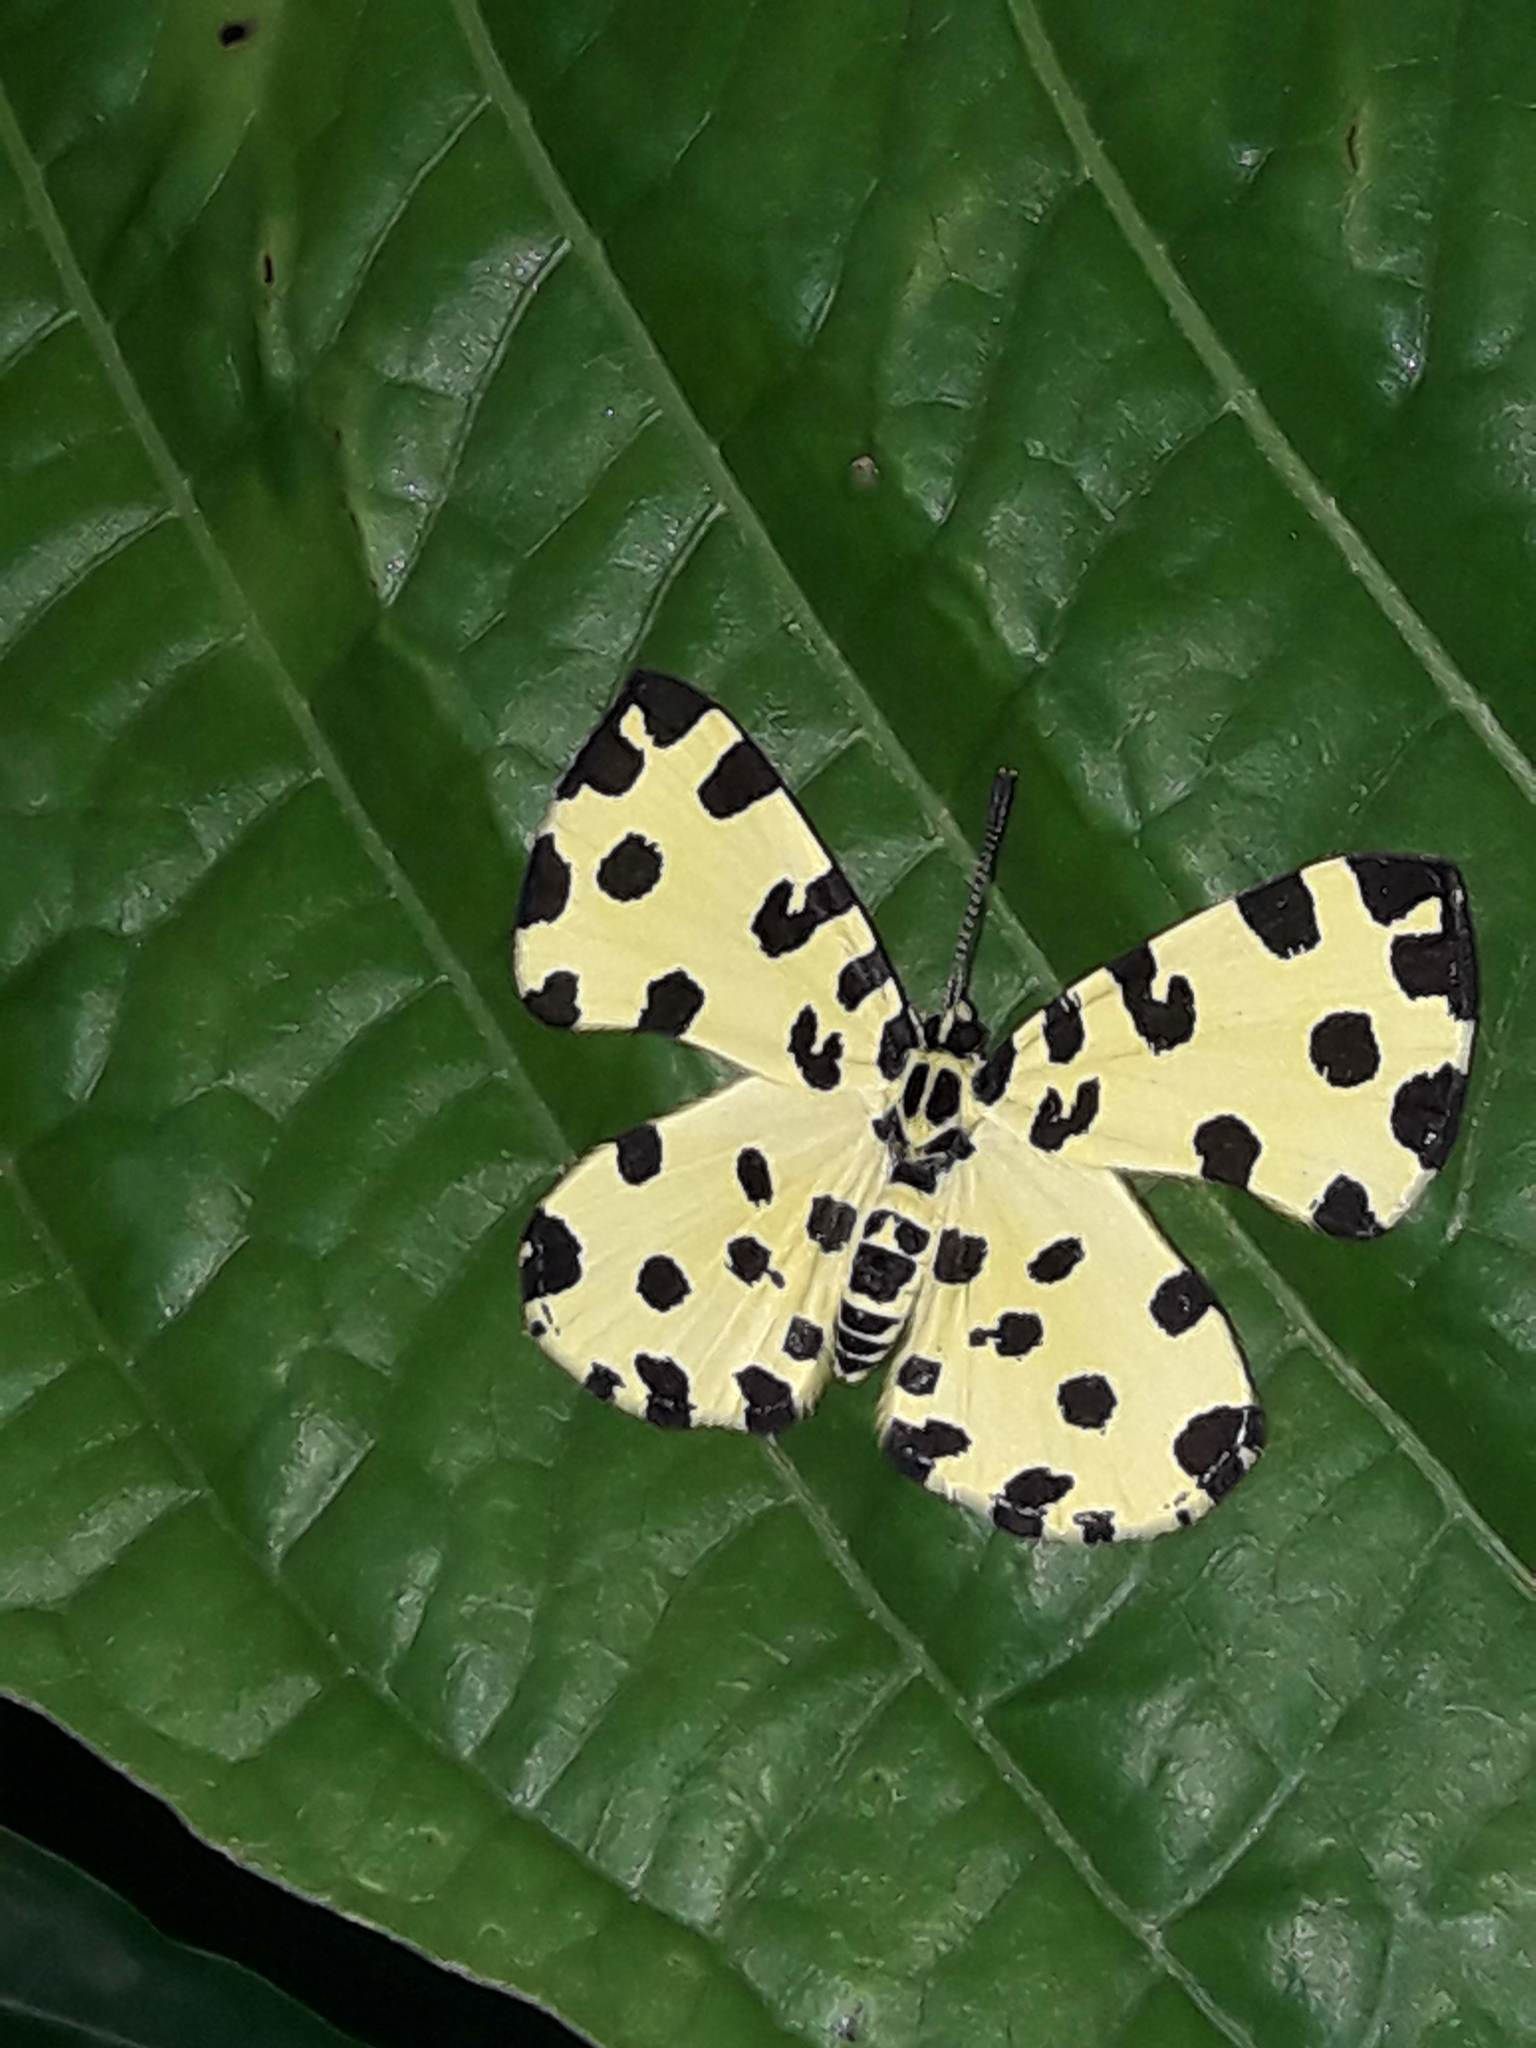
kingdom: Animalia
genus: Baeotis
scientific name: Baeotis macularia
